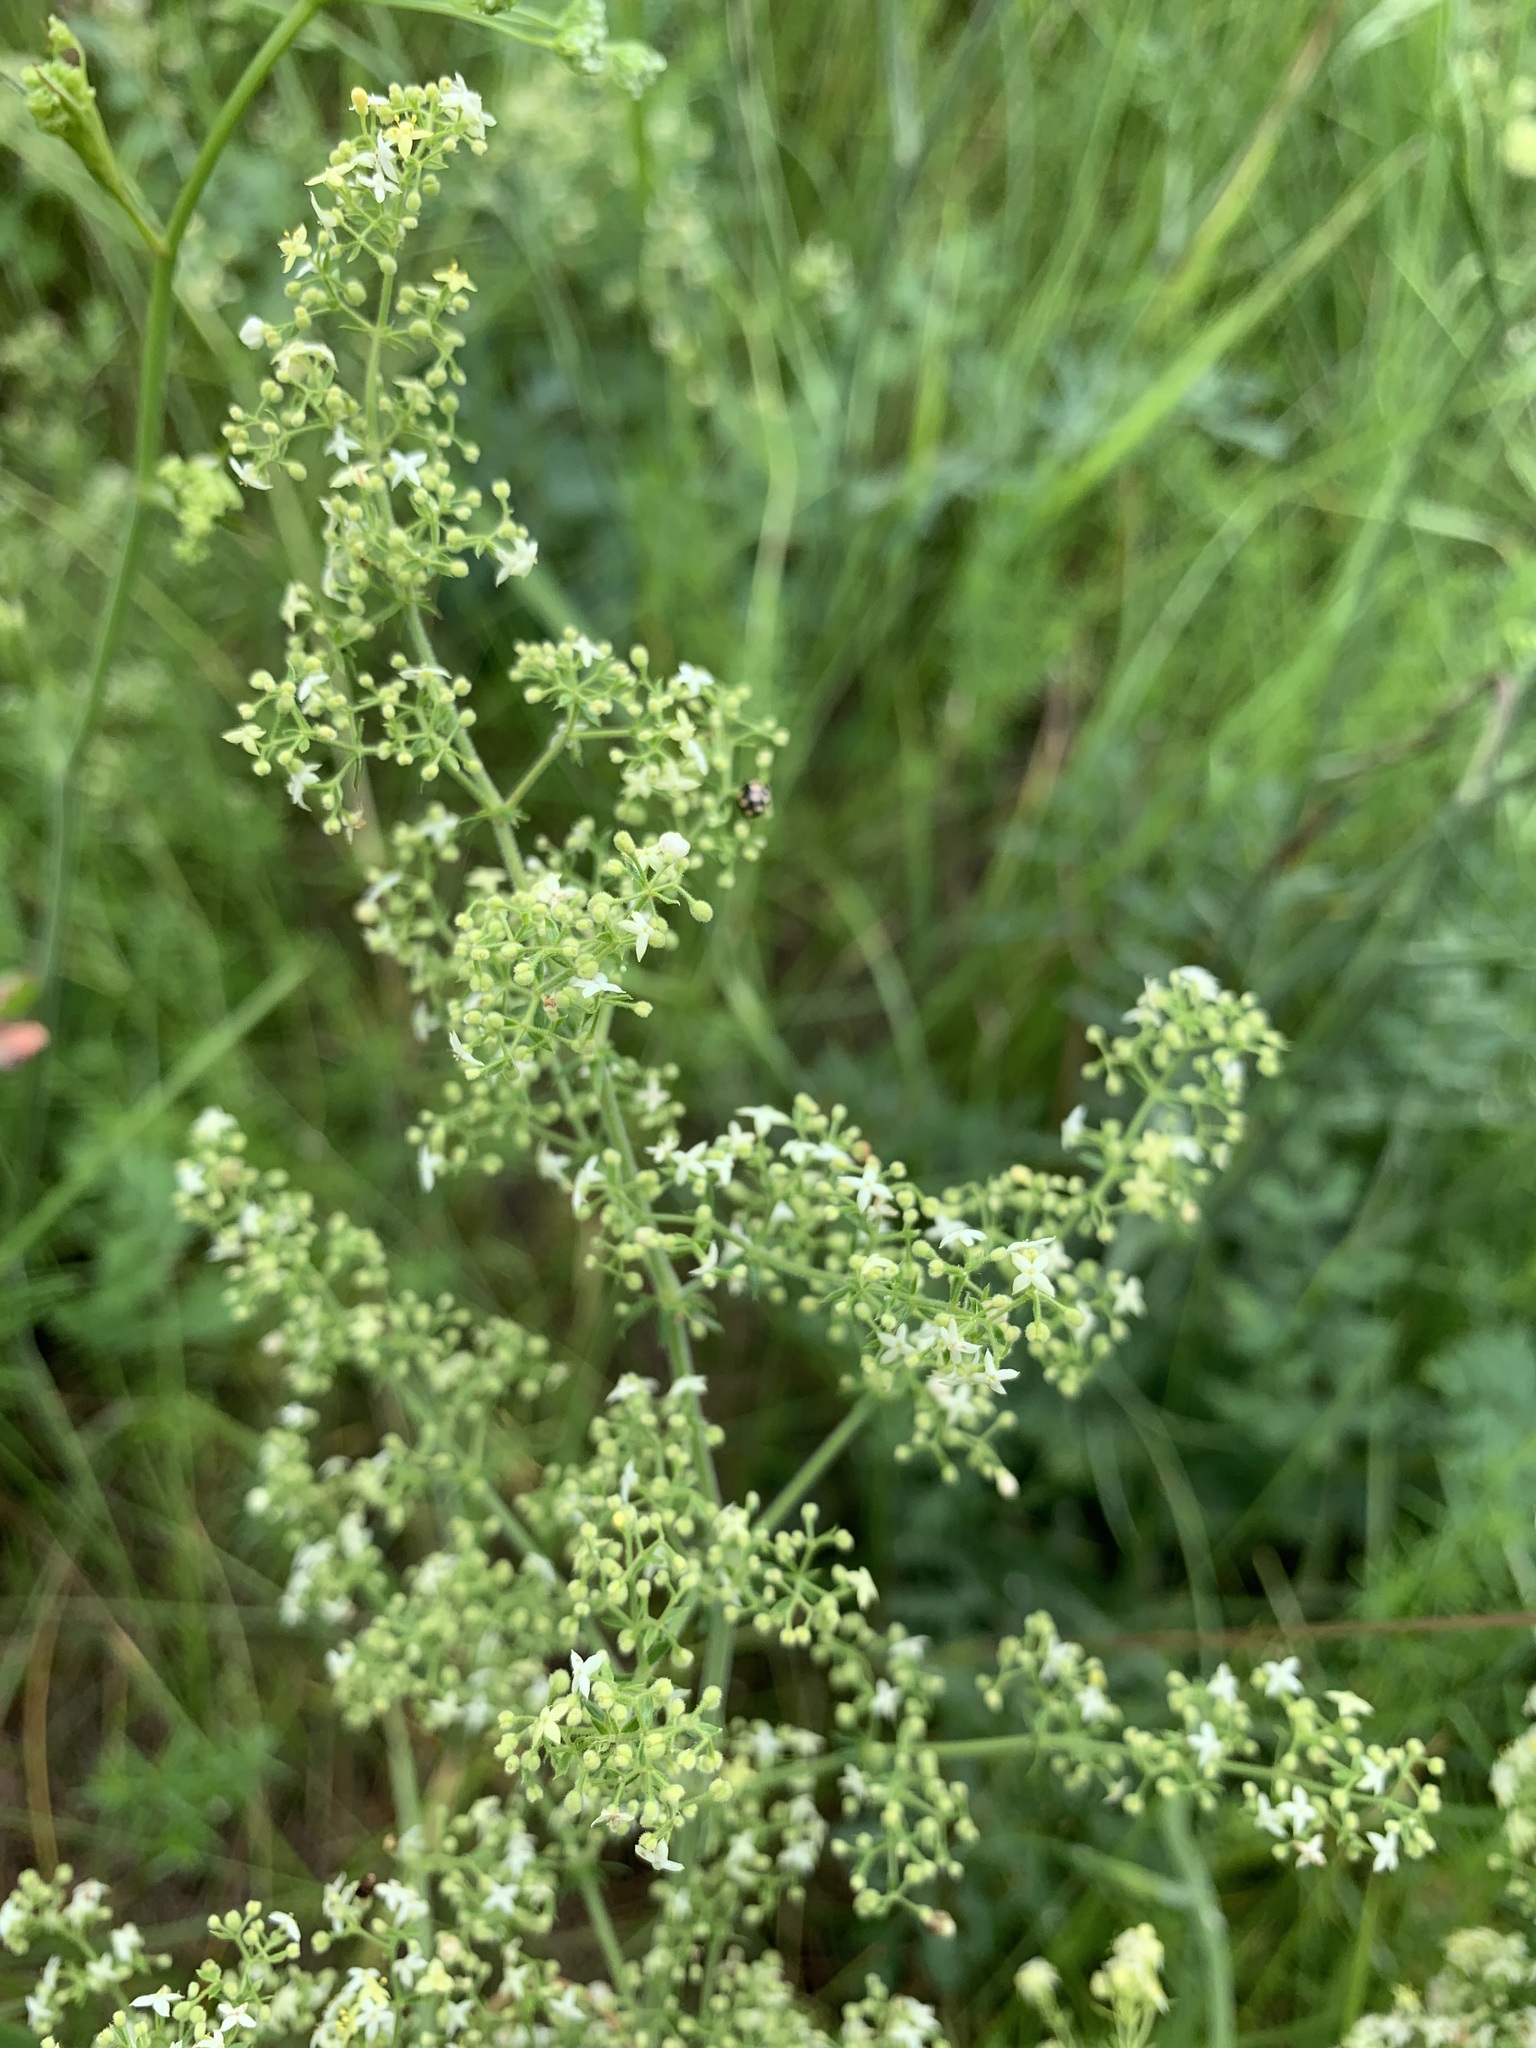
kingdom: Plantae
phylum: Tracheophyta
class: Magnoliopsida
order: Gentianales
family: Rubiaceae
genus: Galium
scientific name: Galium pomeranicum
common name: Bedstraw
